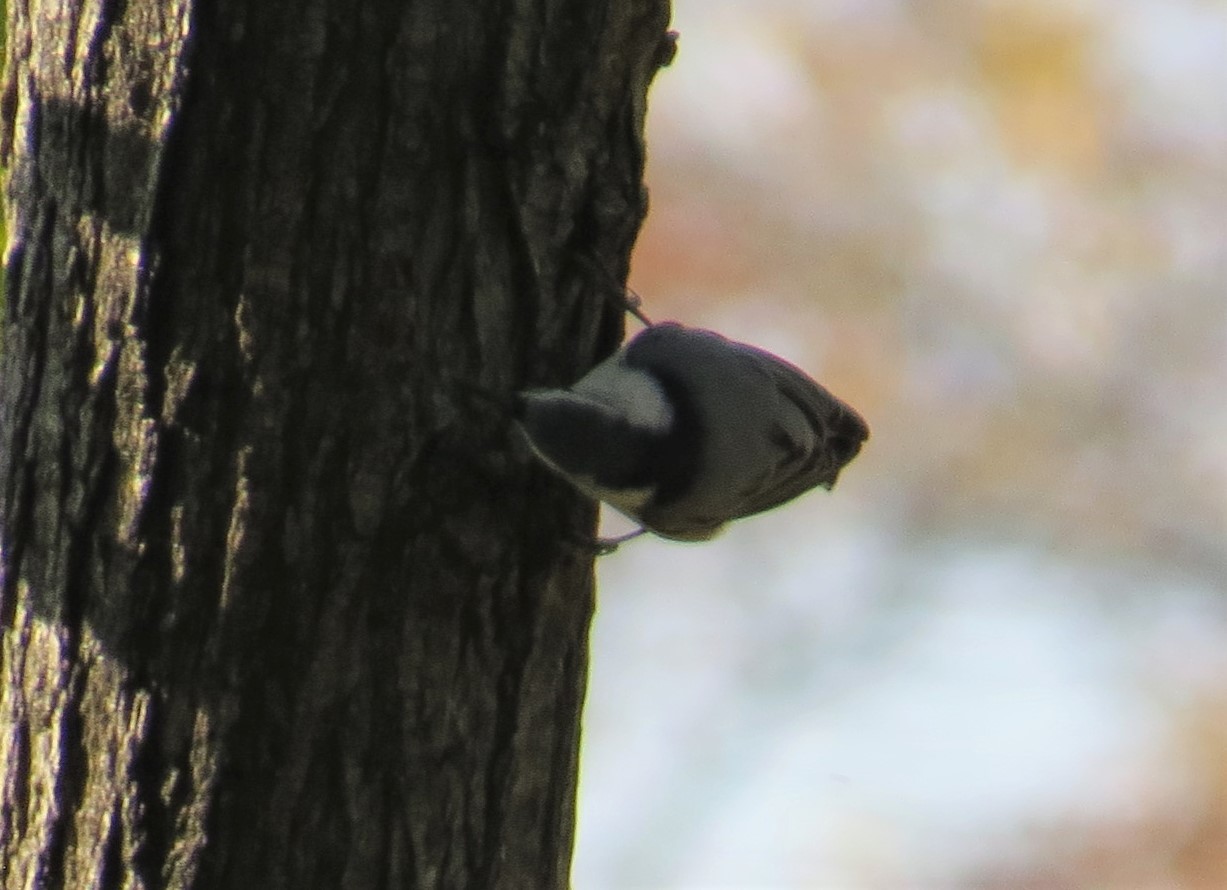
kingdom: Animalia
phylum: Chordata
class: Aves
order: Passeriformes
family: Sittidae
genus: Sitta
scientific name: Sitta carolinensis
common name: White-breasted nuthatch
